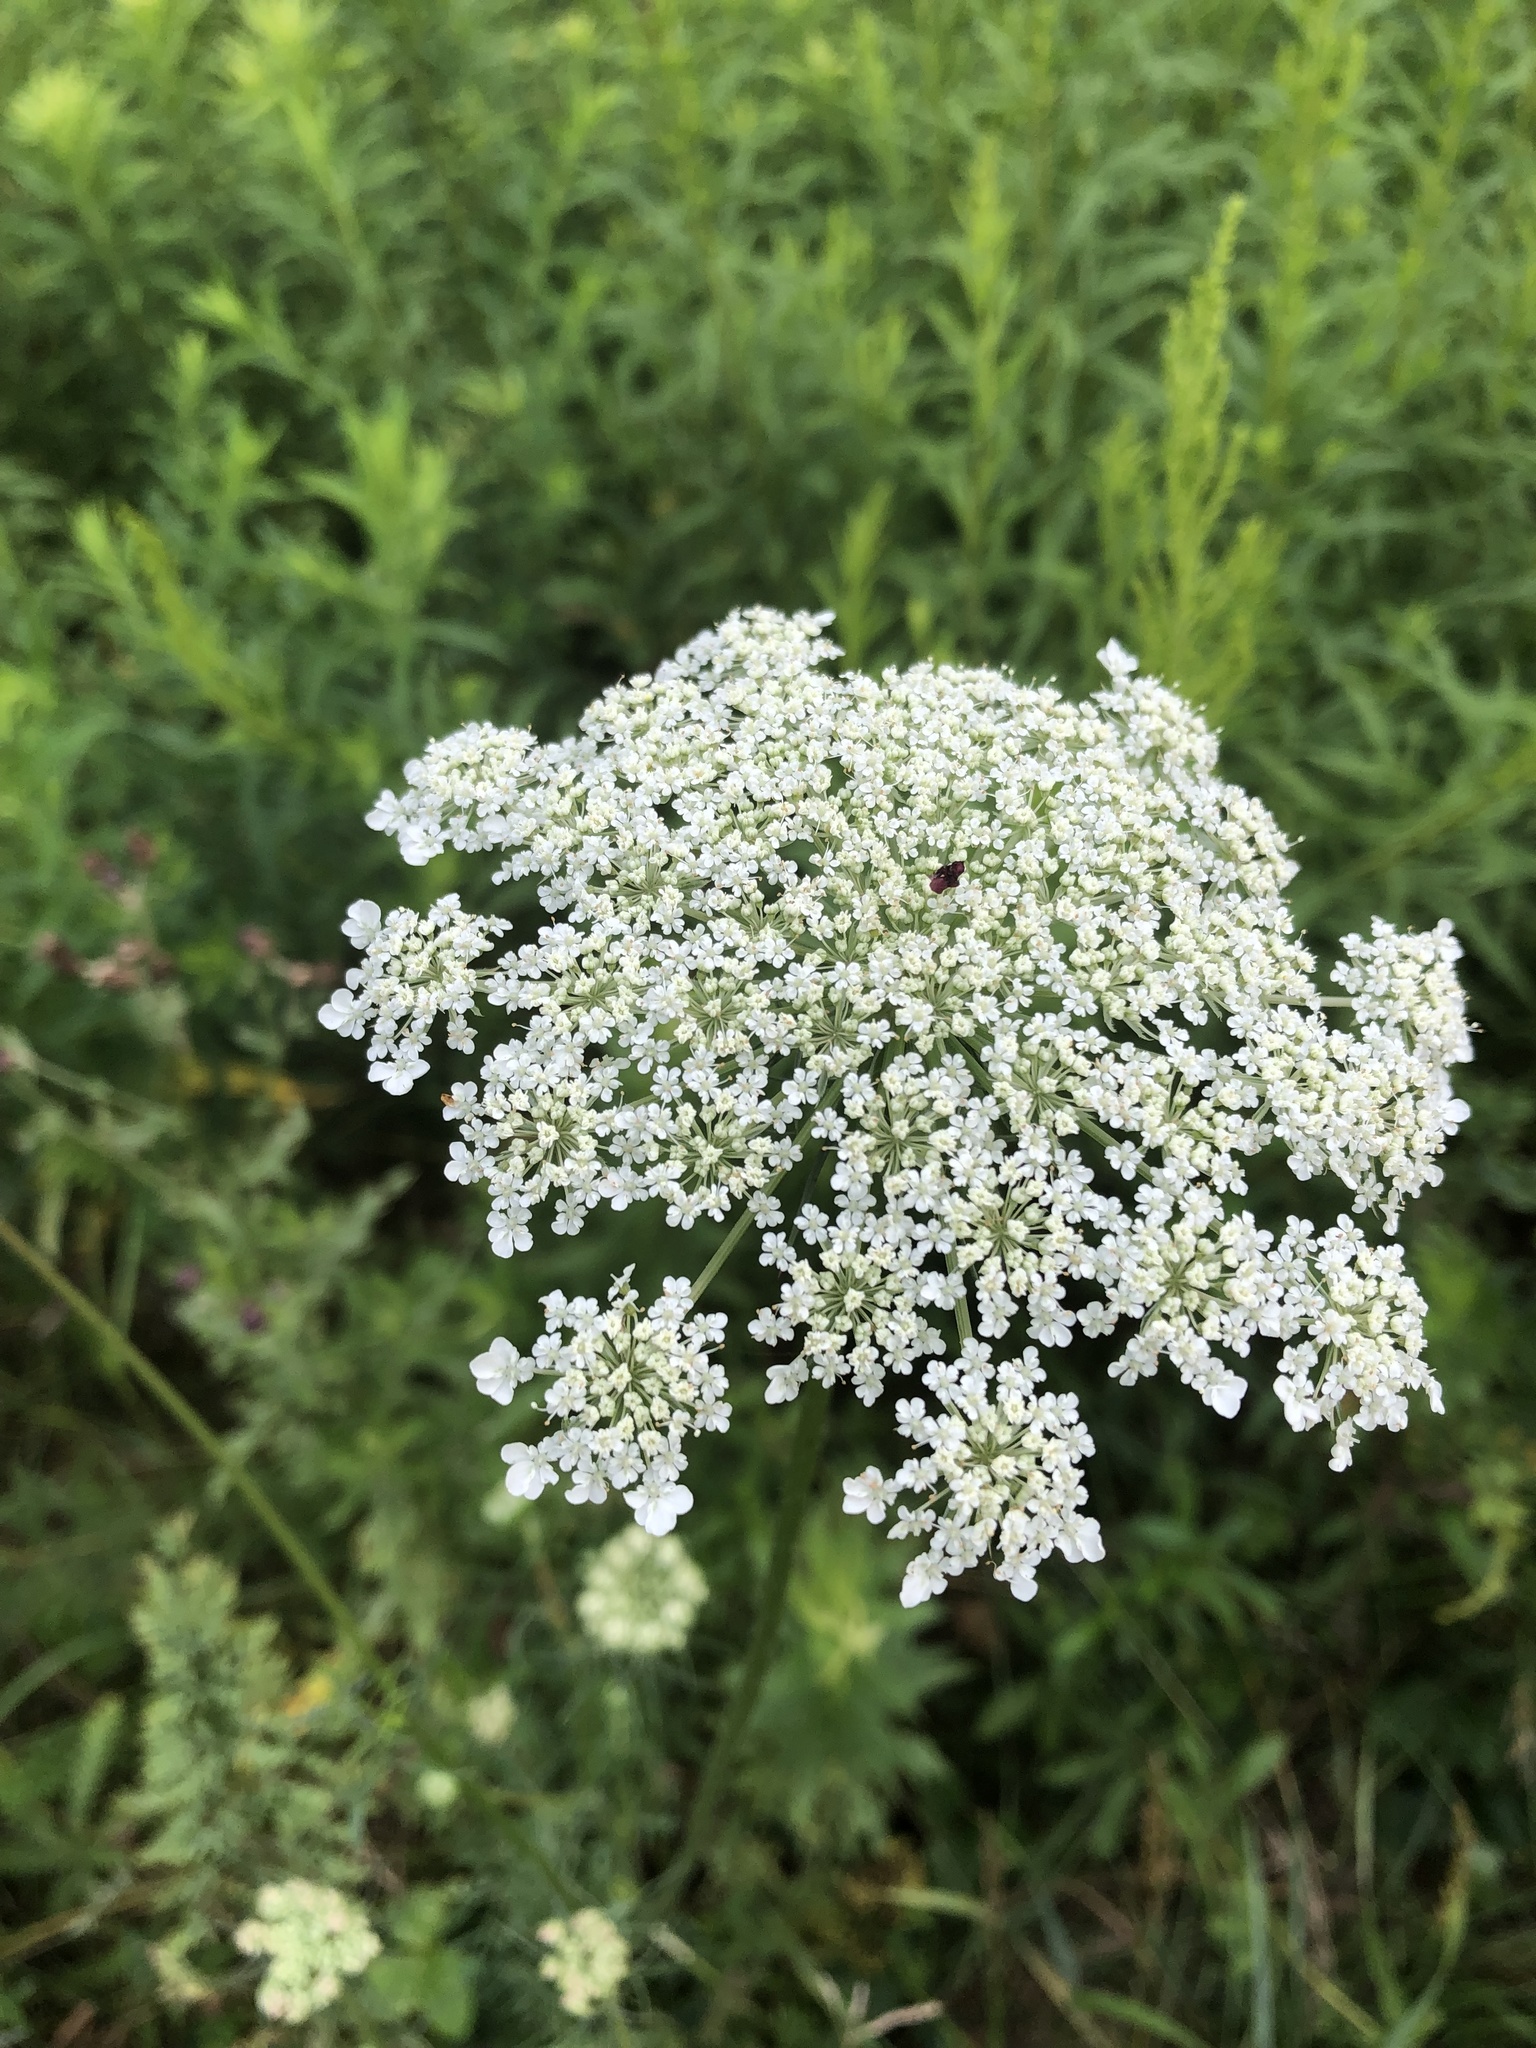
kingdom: Plantae
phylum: Tracheophyta
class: Magnoliopsida
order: Apiales
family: Apiaceae
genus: Daucus
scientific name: Daucus carota
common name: Wild carrot
